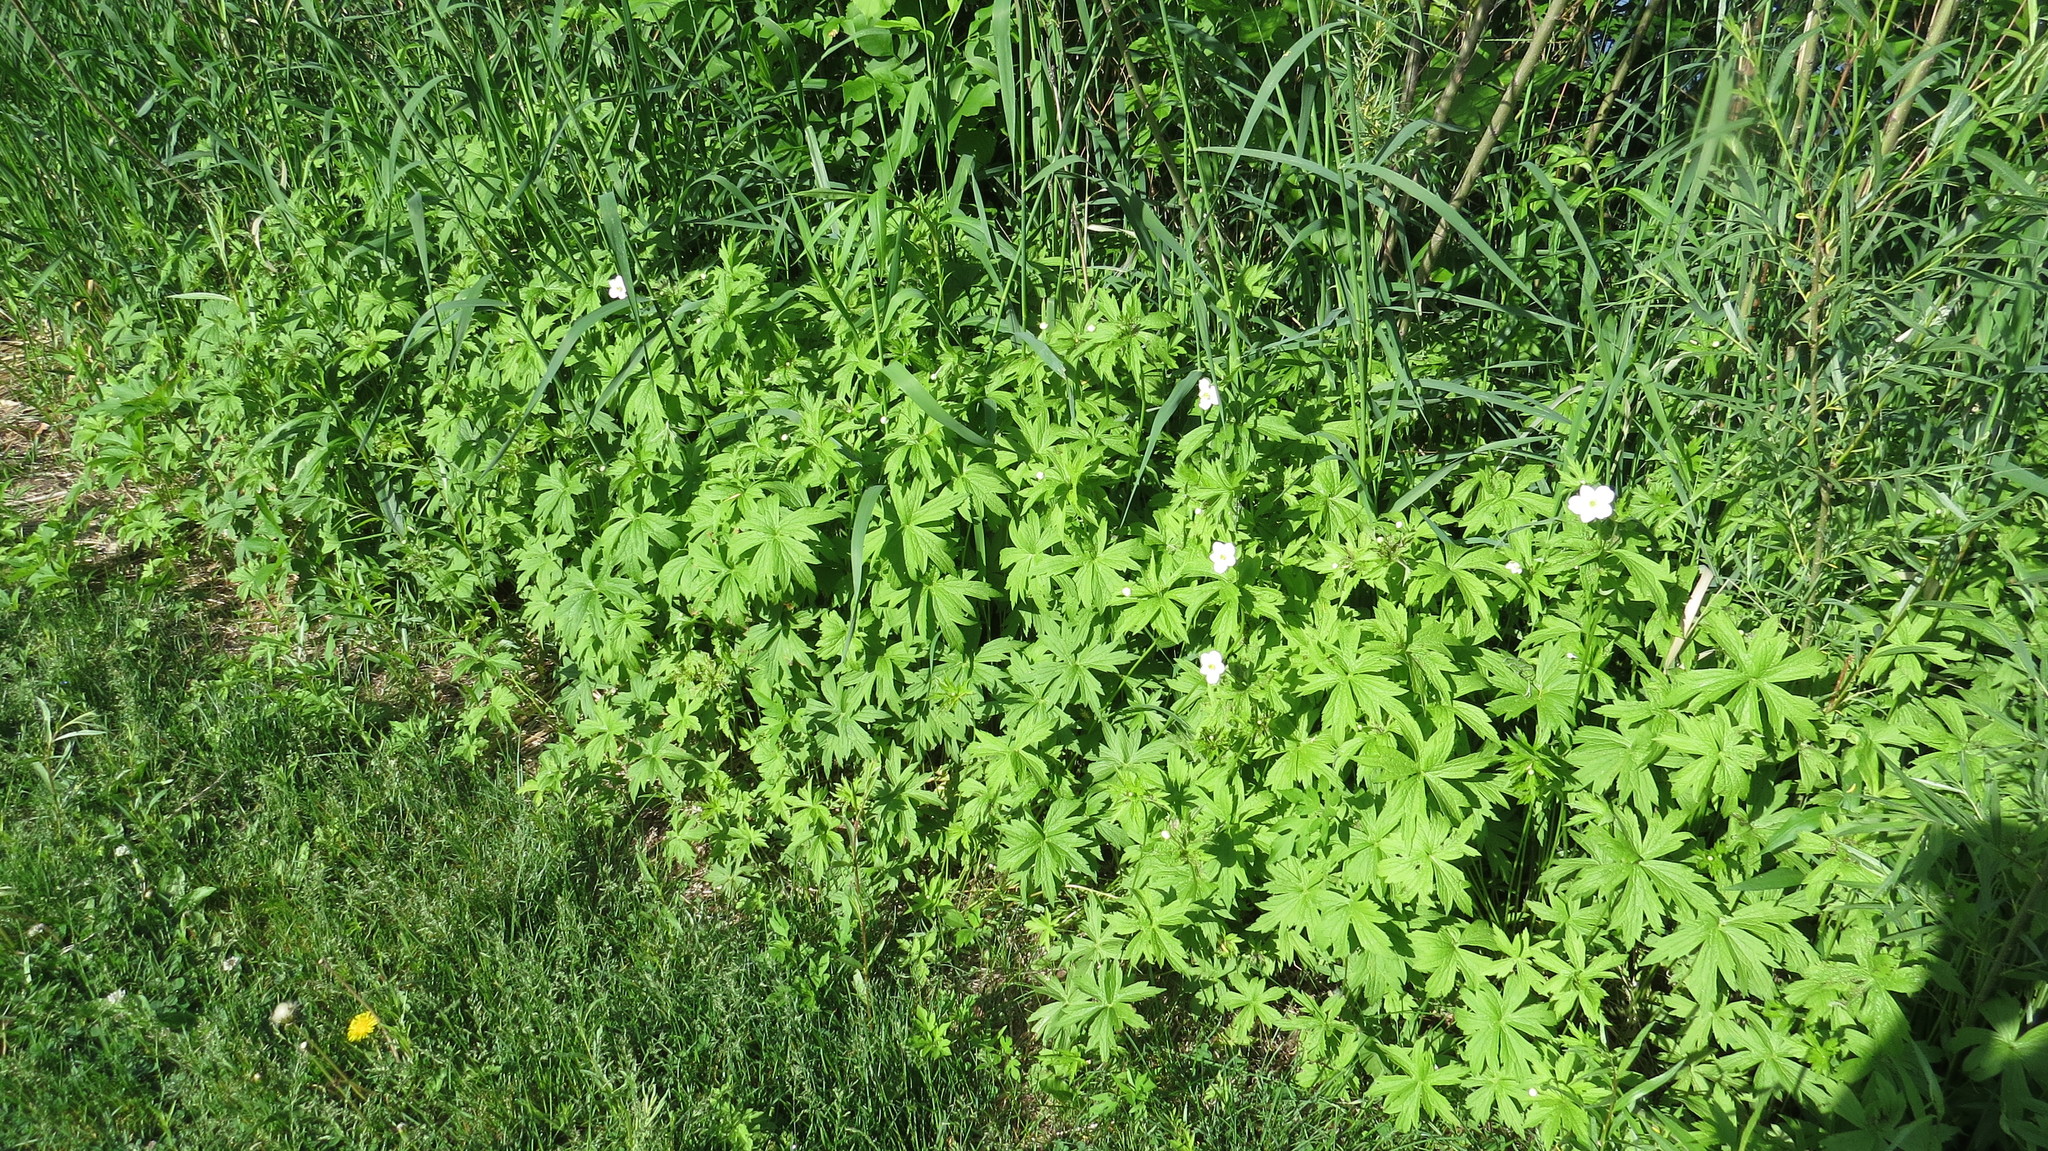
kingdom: Plantae
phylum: Tracheophyta
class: Magnoliopsida
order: Ranunculales
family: Ranunculaceae
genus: Anemonastrum
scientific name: Anemonastrum canadense
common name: Canada anemone
